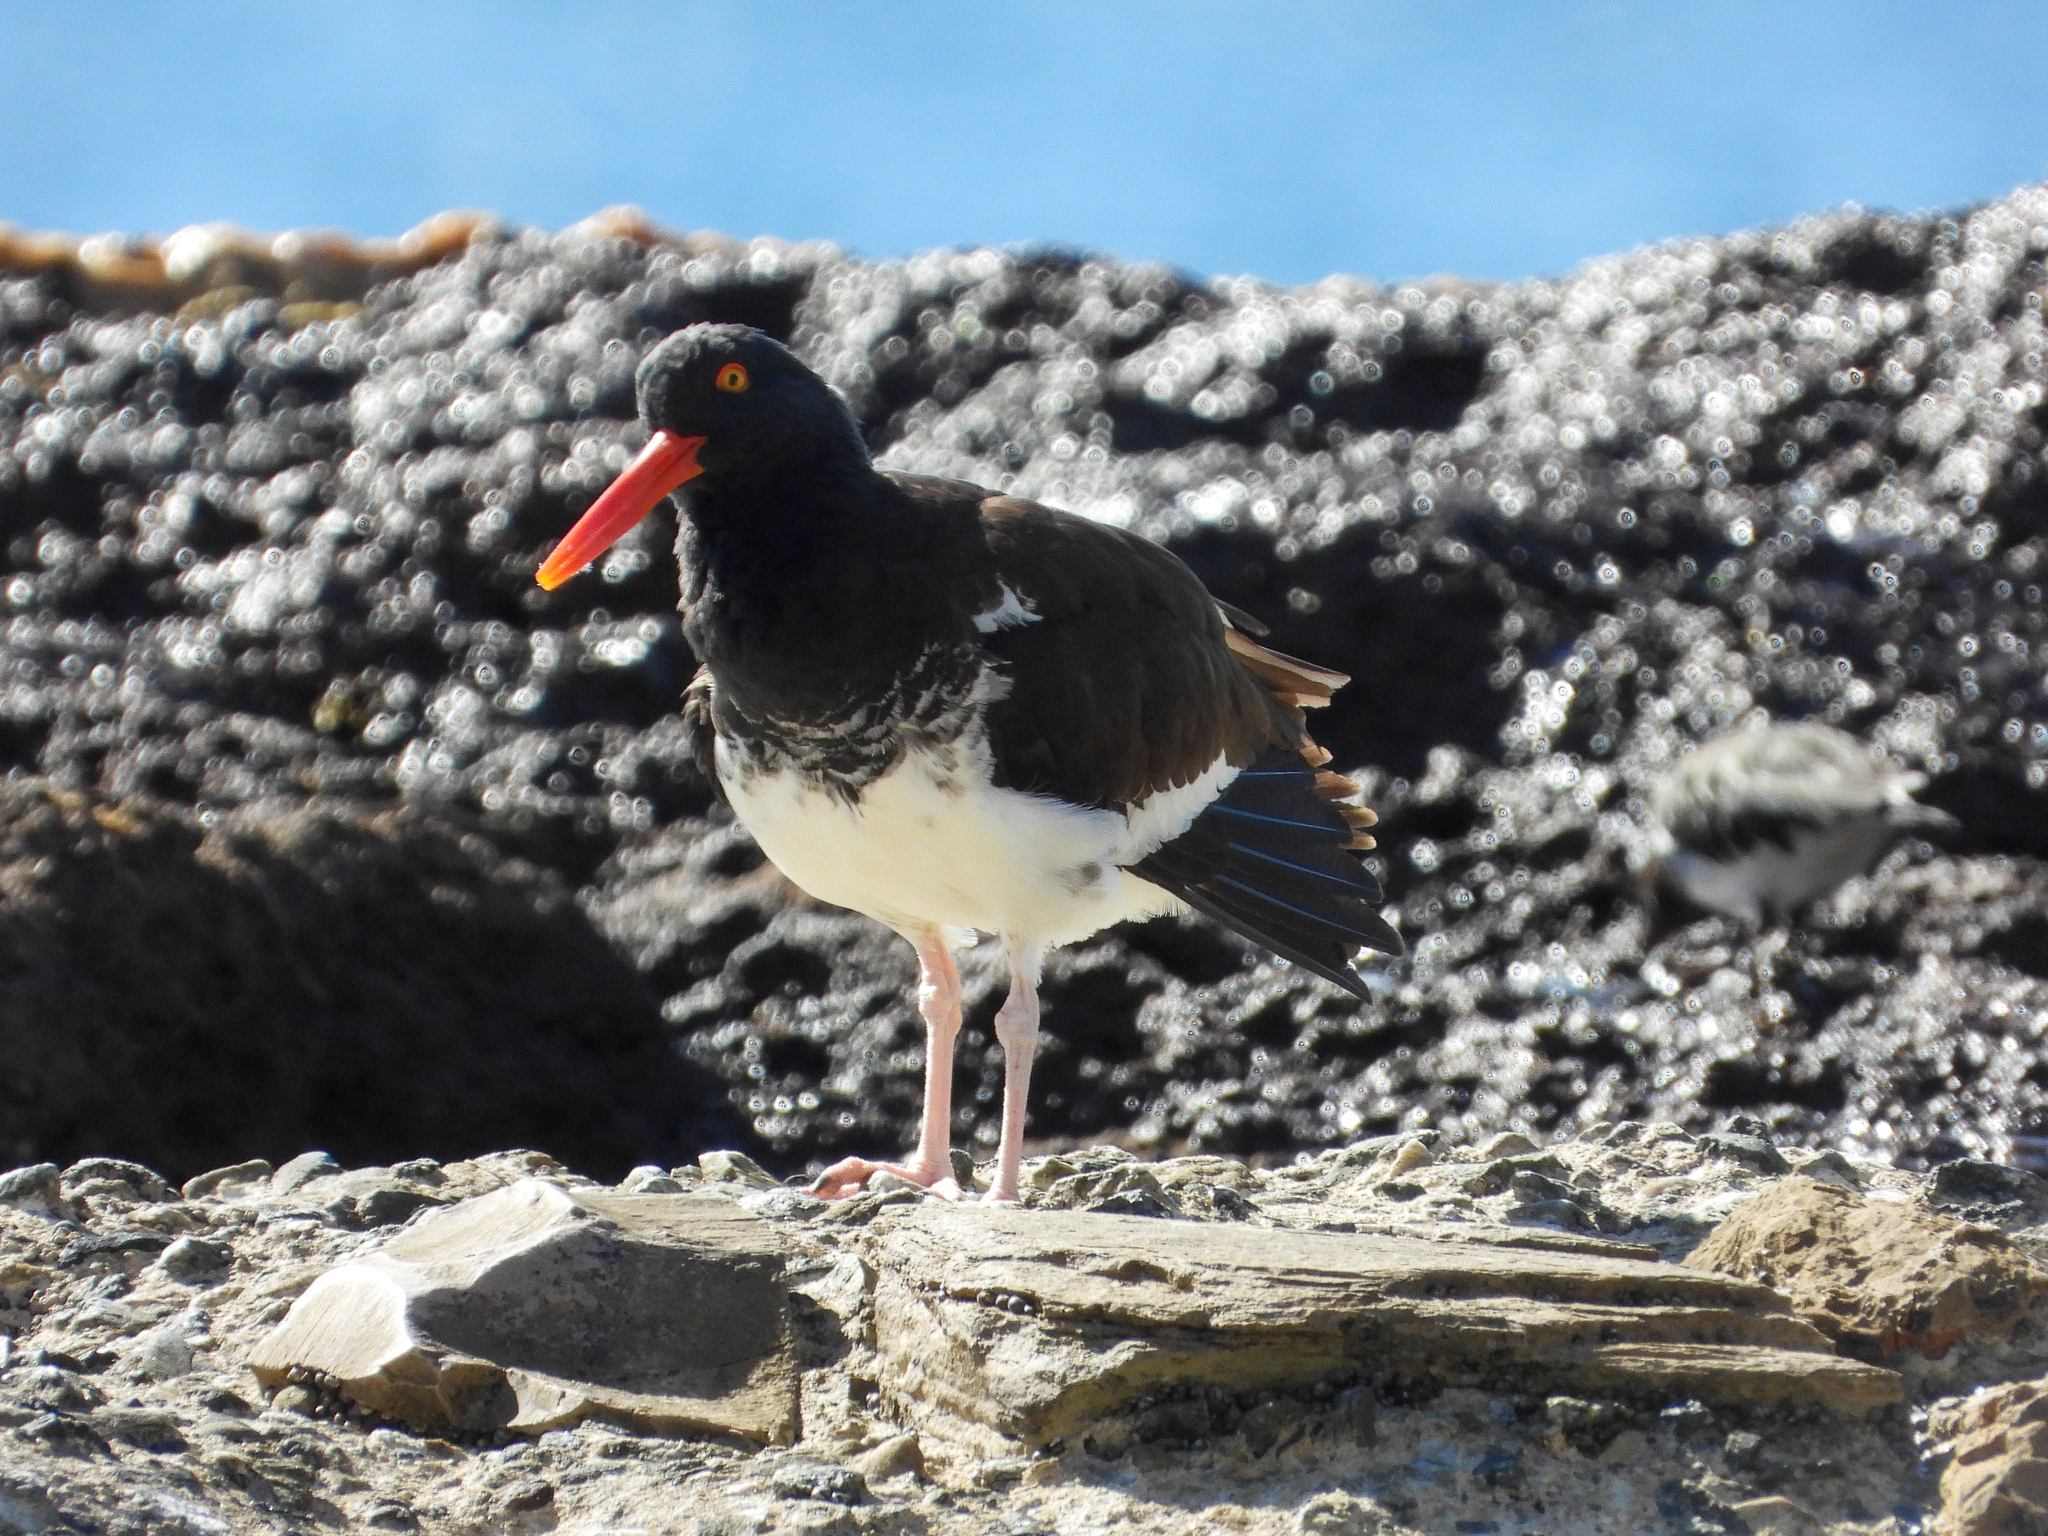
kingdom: Animalia
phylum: Chordata
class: Aves
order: Charadriiformes
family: Haematopodidae
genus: Haematopus
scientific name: Haematopus
